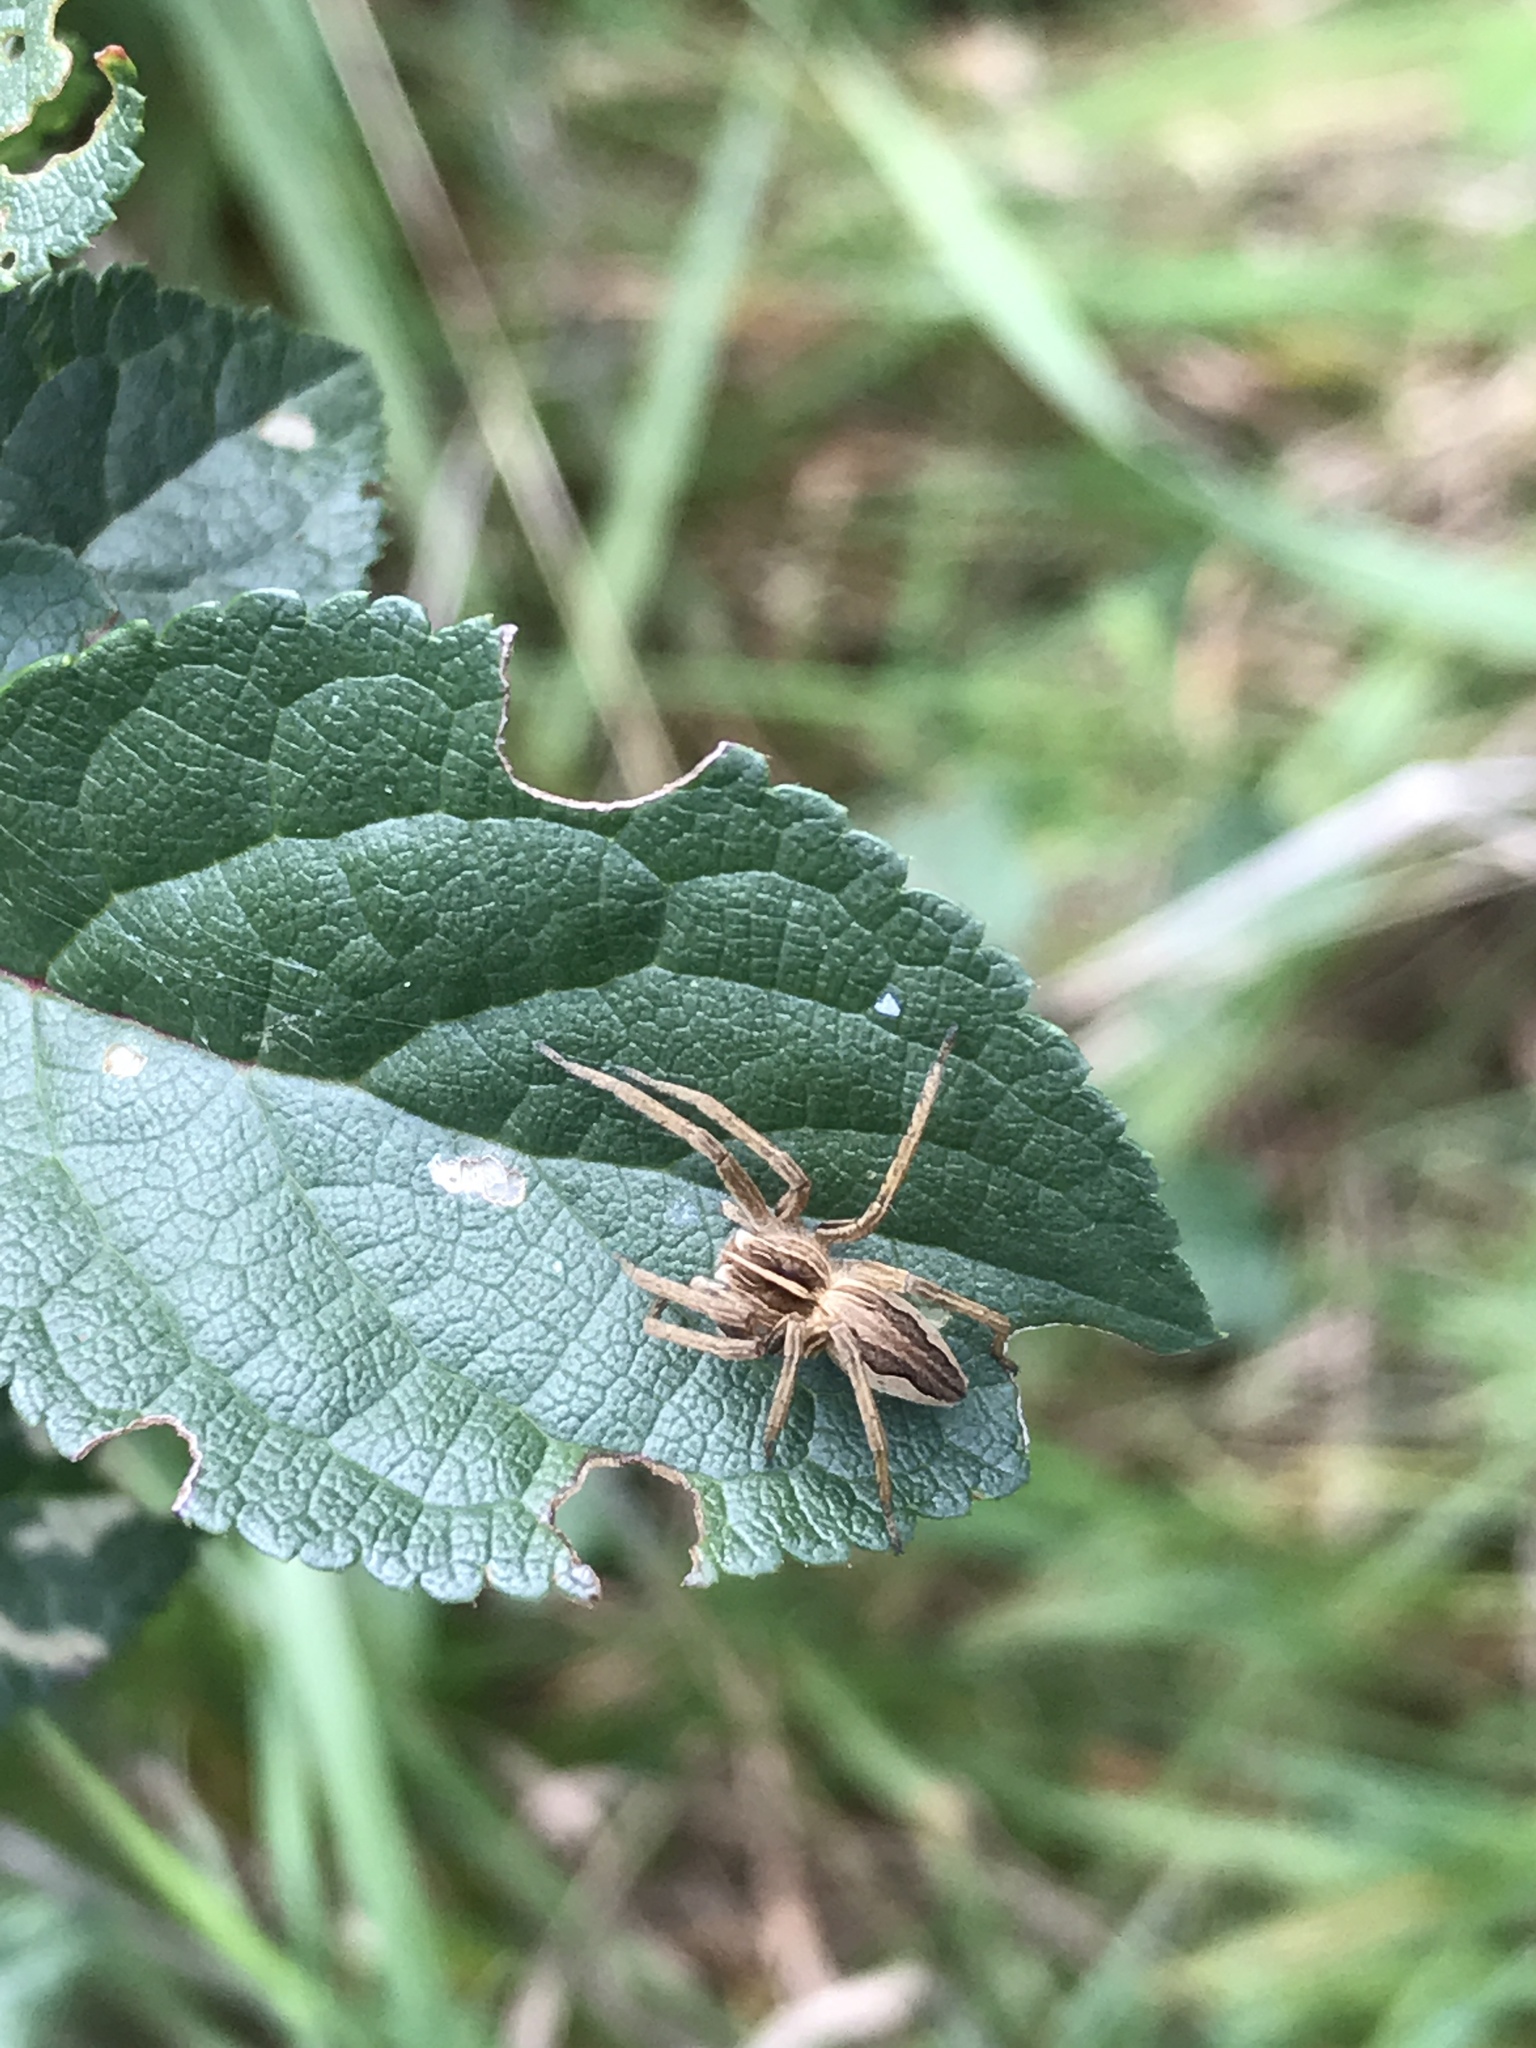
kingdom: Animalia
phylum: Arthropoda
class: Arachnida
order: Araneae
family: Pisauridae
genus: Pisaura
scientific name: Pisaura mirabilis
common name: Tent spider
